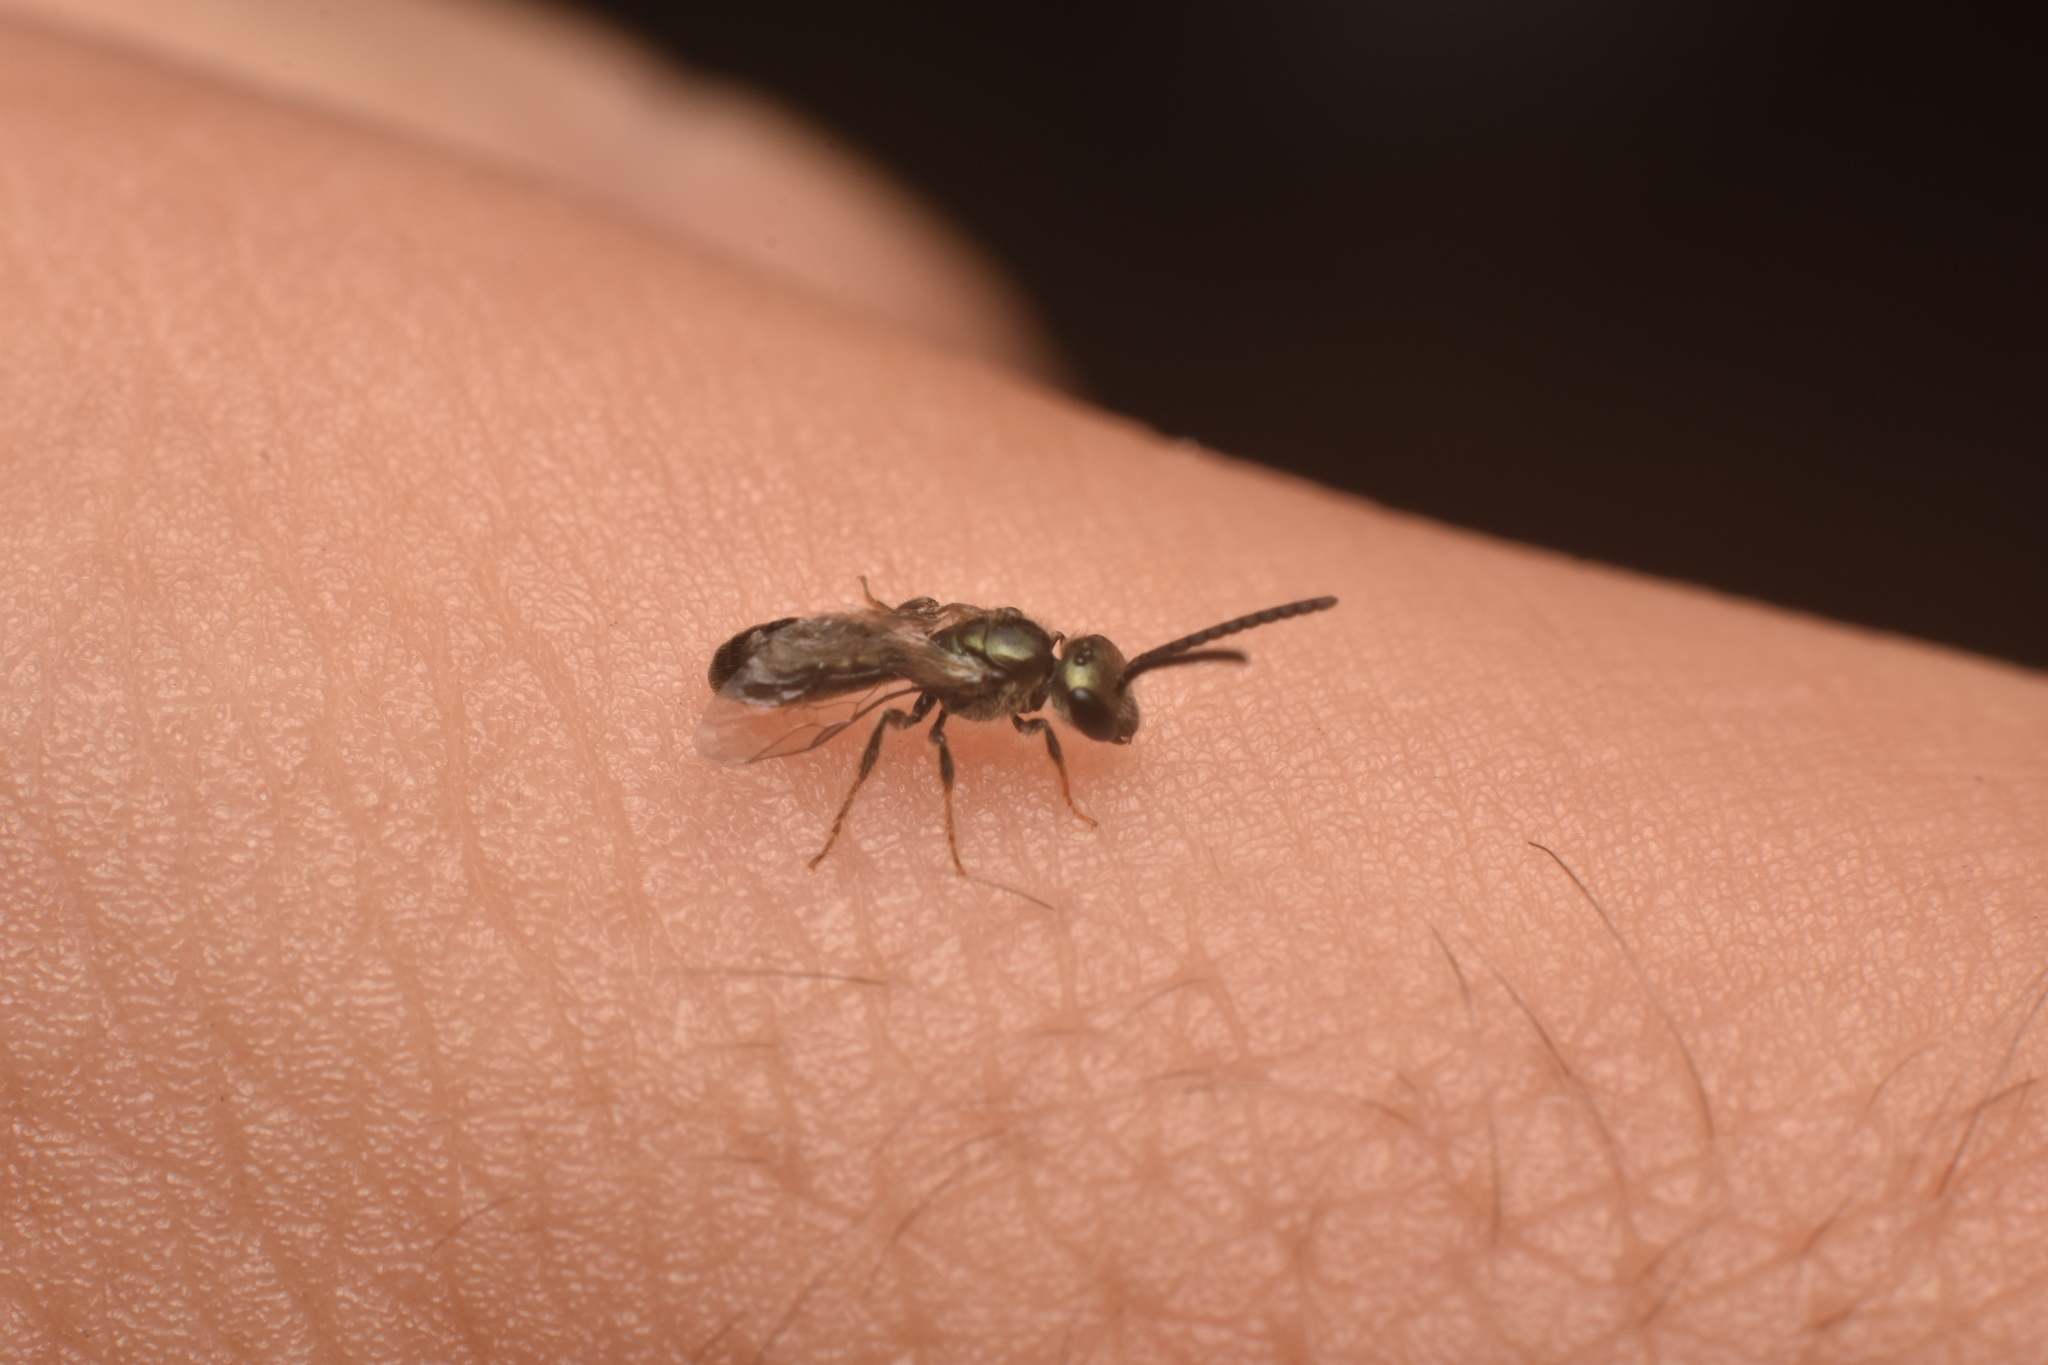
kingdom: Animalia
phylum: Arthropoda
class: Insecta
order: Hymenoptera
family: Halictidae
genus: Dialictus
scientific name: Dialictus
